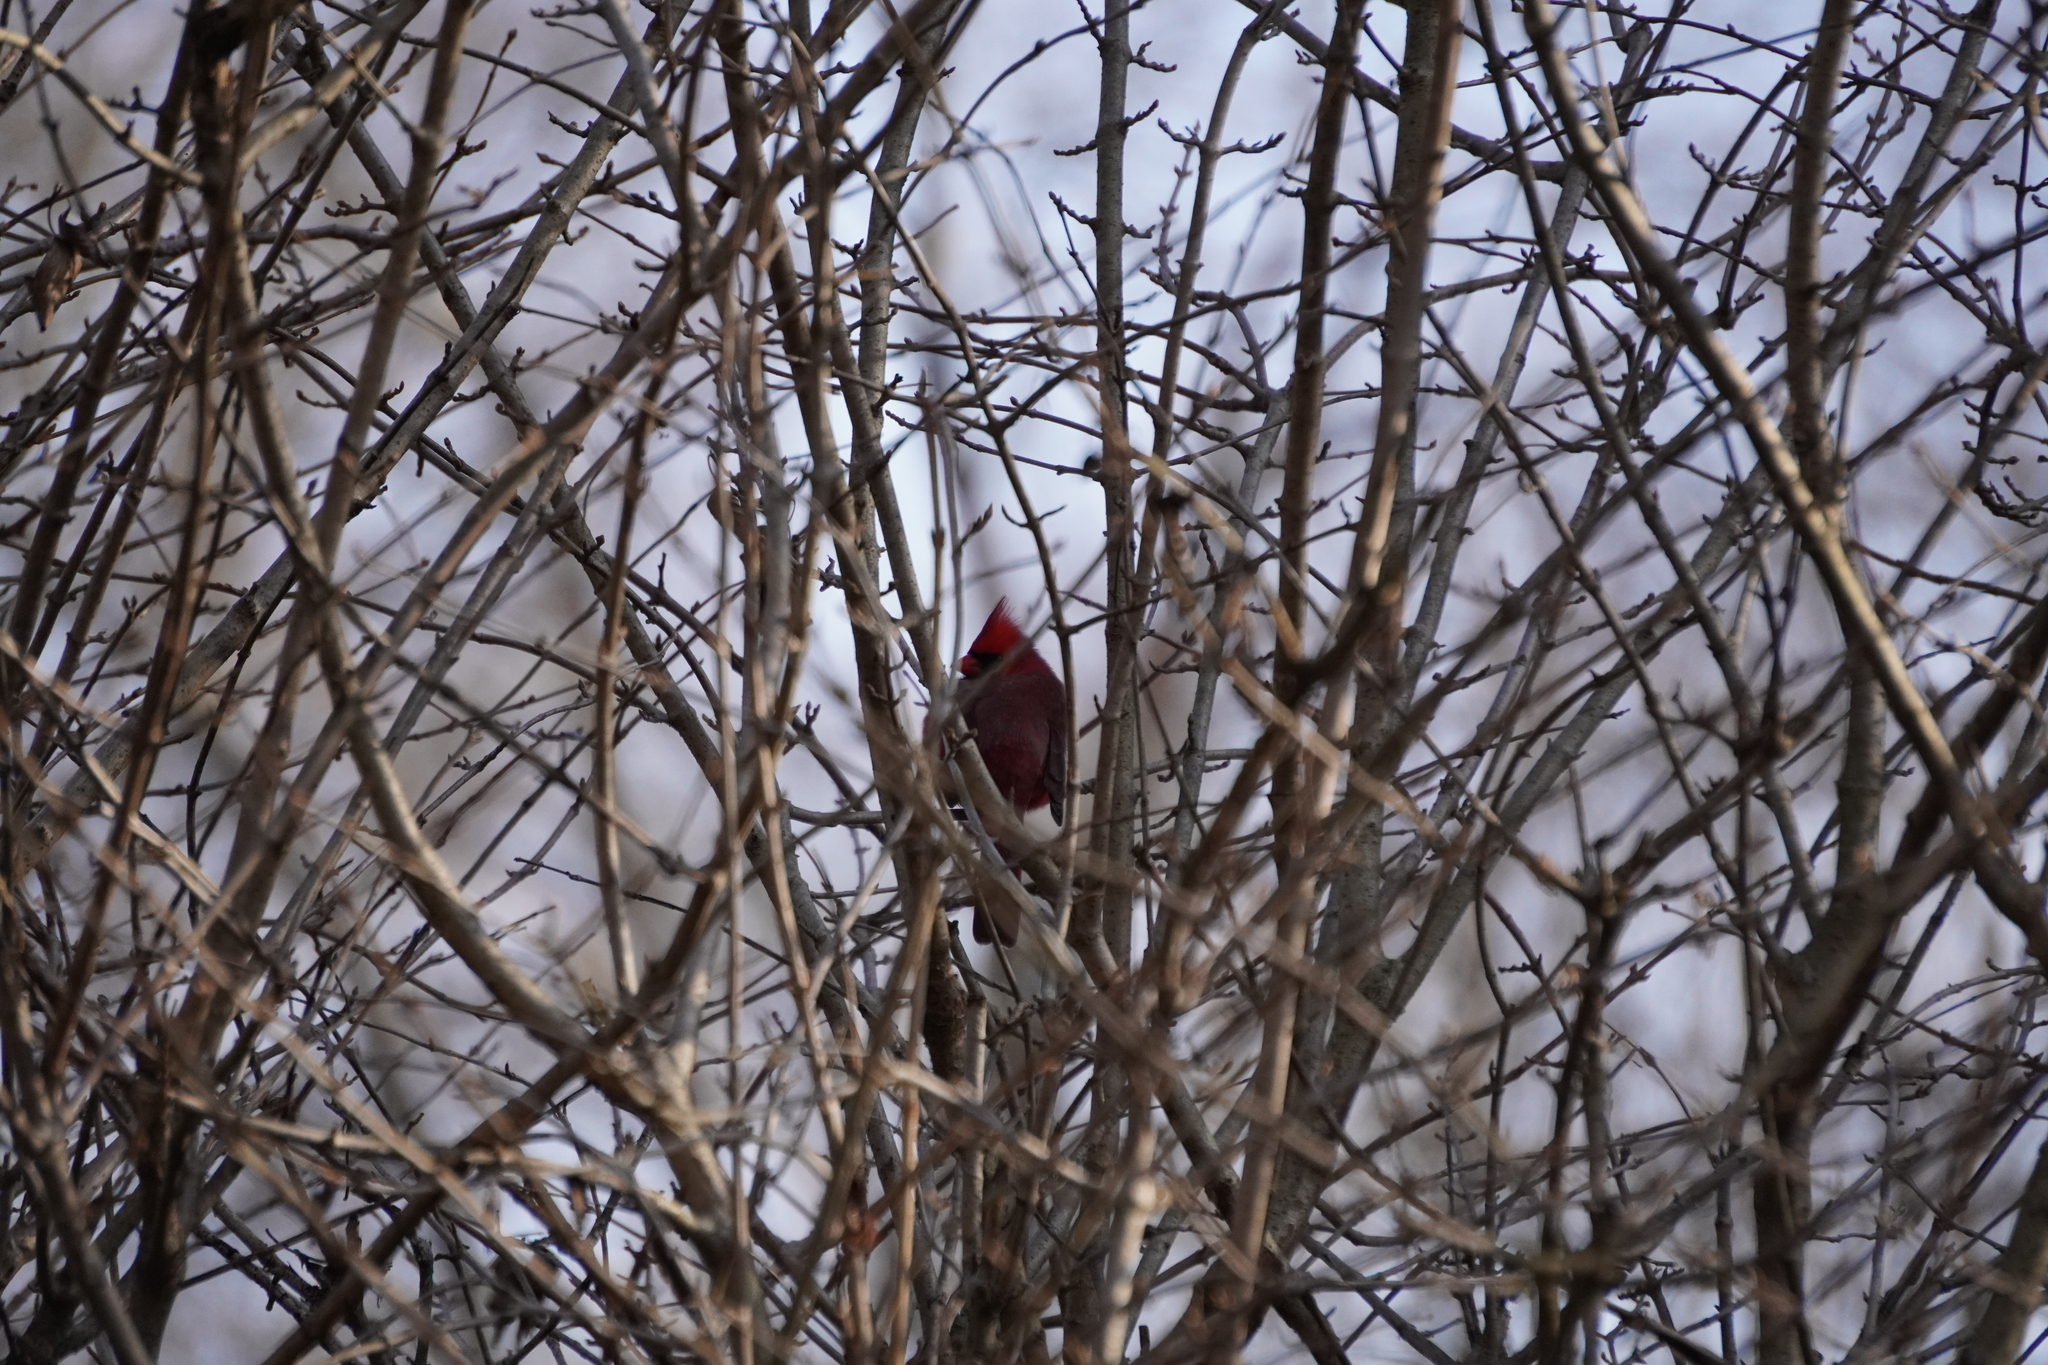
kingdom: Animalia
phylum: Chordata
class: Aves
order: Passeriformes
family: Cardinalidae
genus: Cardinalis
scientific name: Cardinalis cardinalis
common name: Northern cardinal
